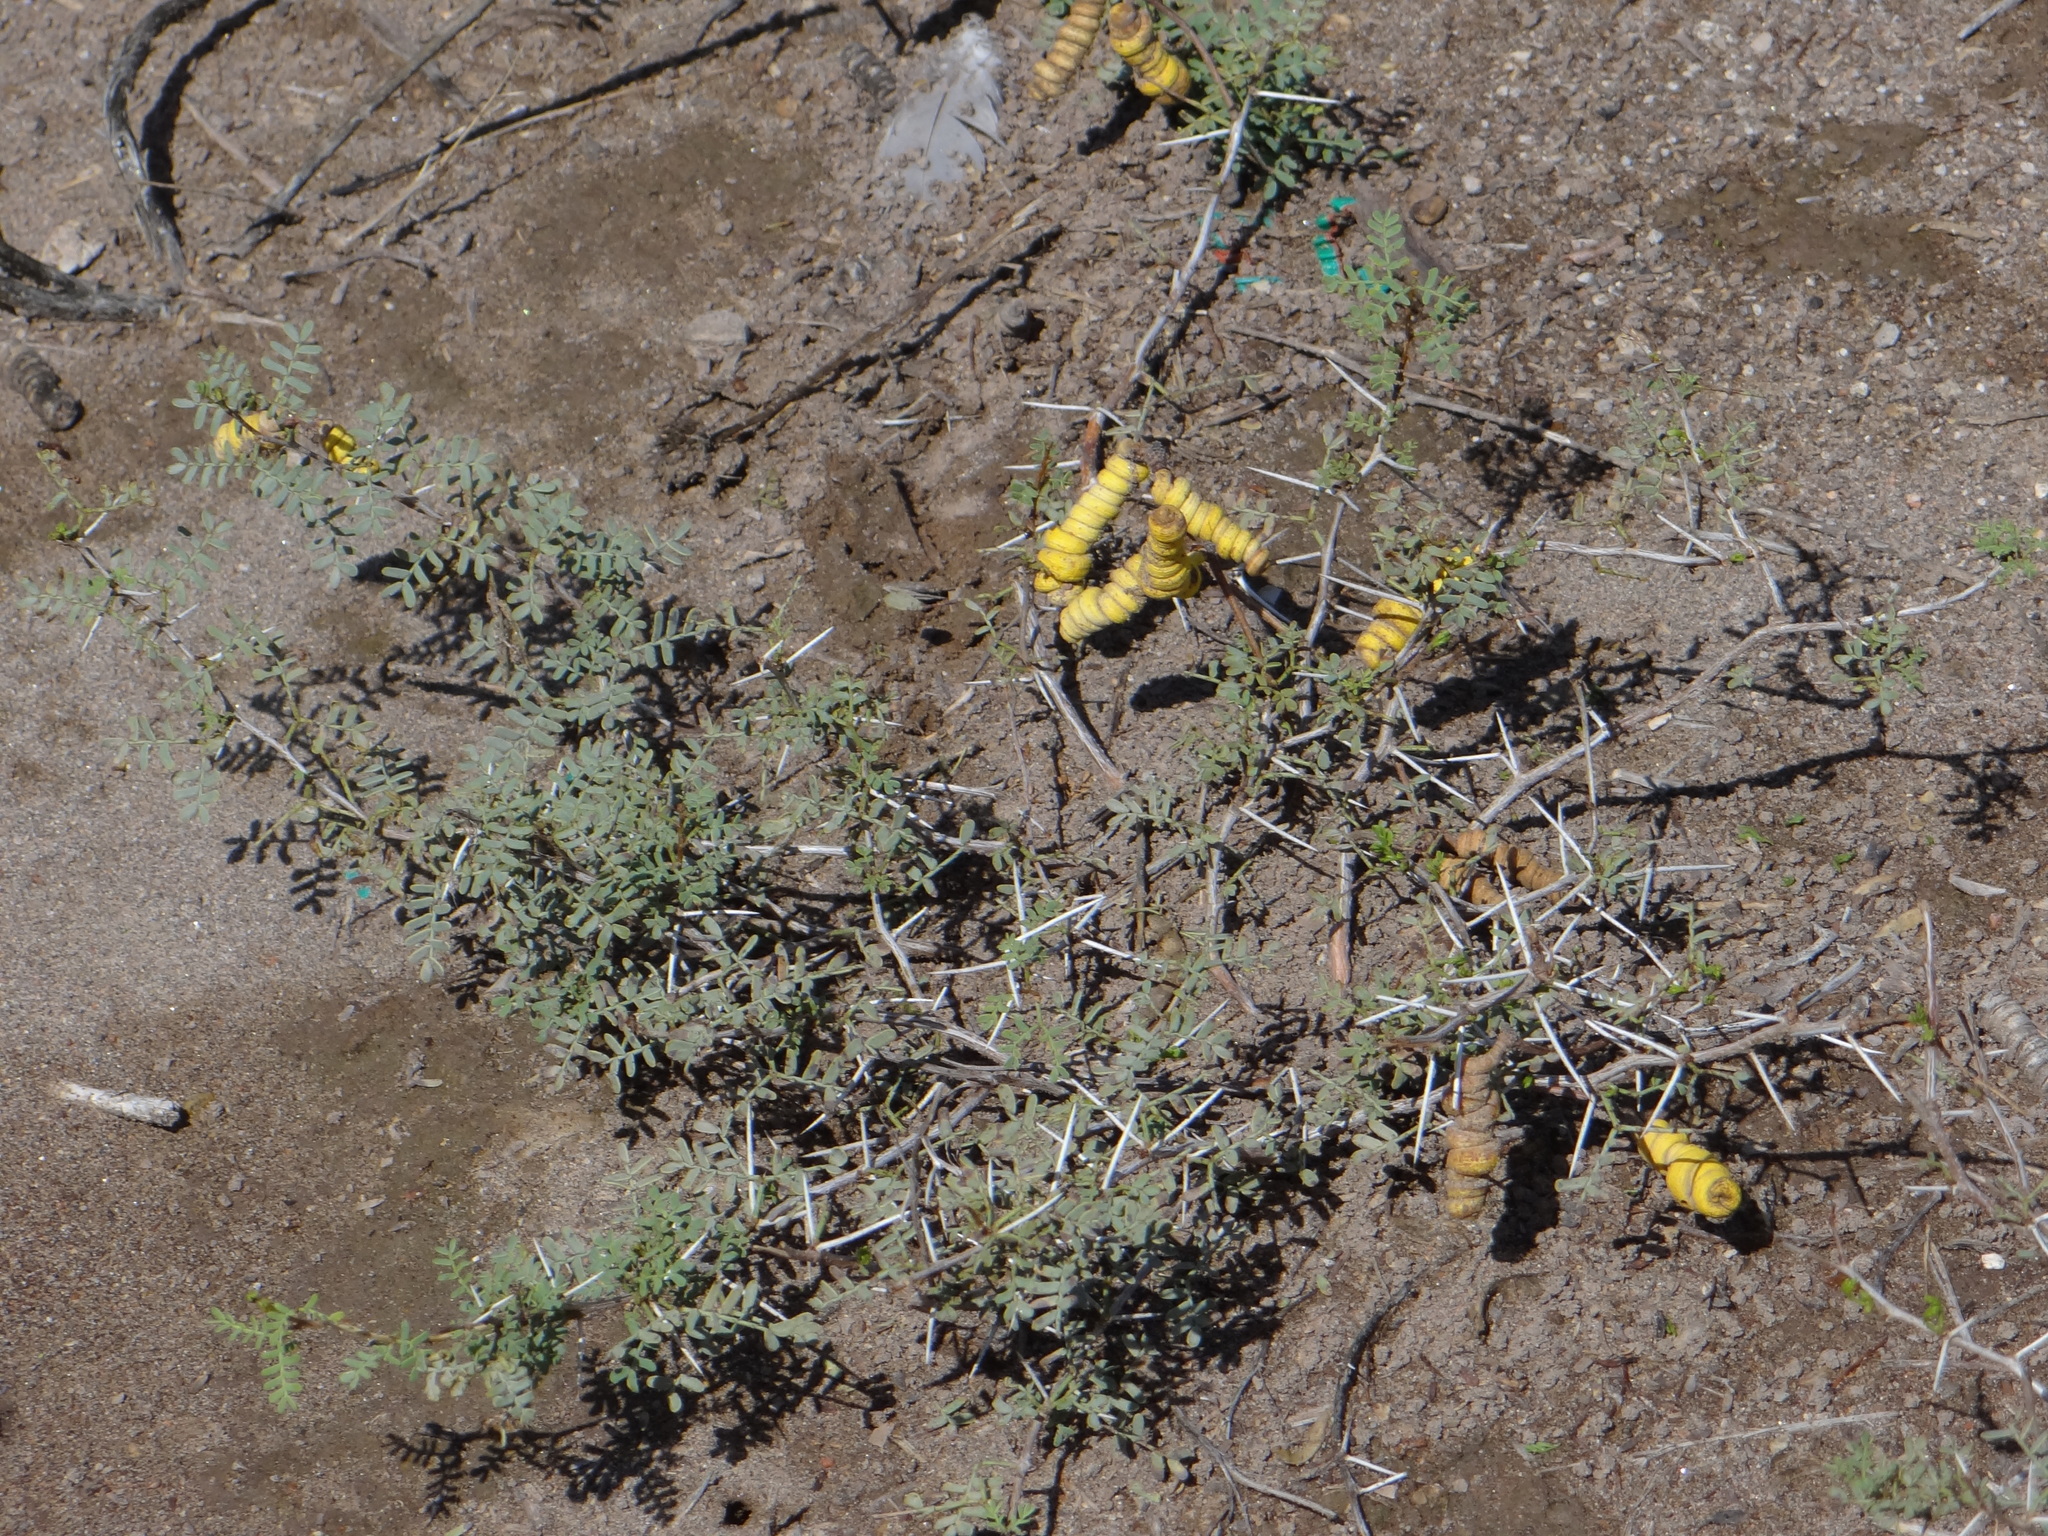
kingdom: Plantae
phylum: Tracheophyta
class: Magnoliopsida
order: Fabales
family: Fabaceae
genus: Prosopis
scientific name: Prosopis strombulifera
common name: Creeping mesquite
